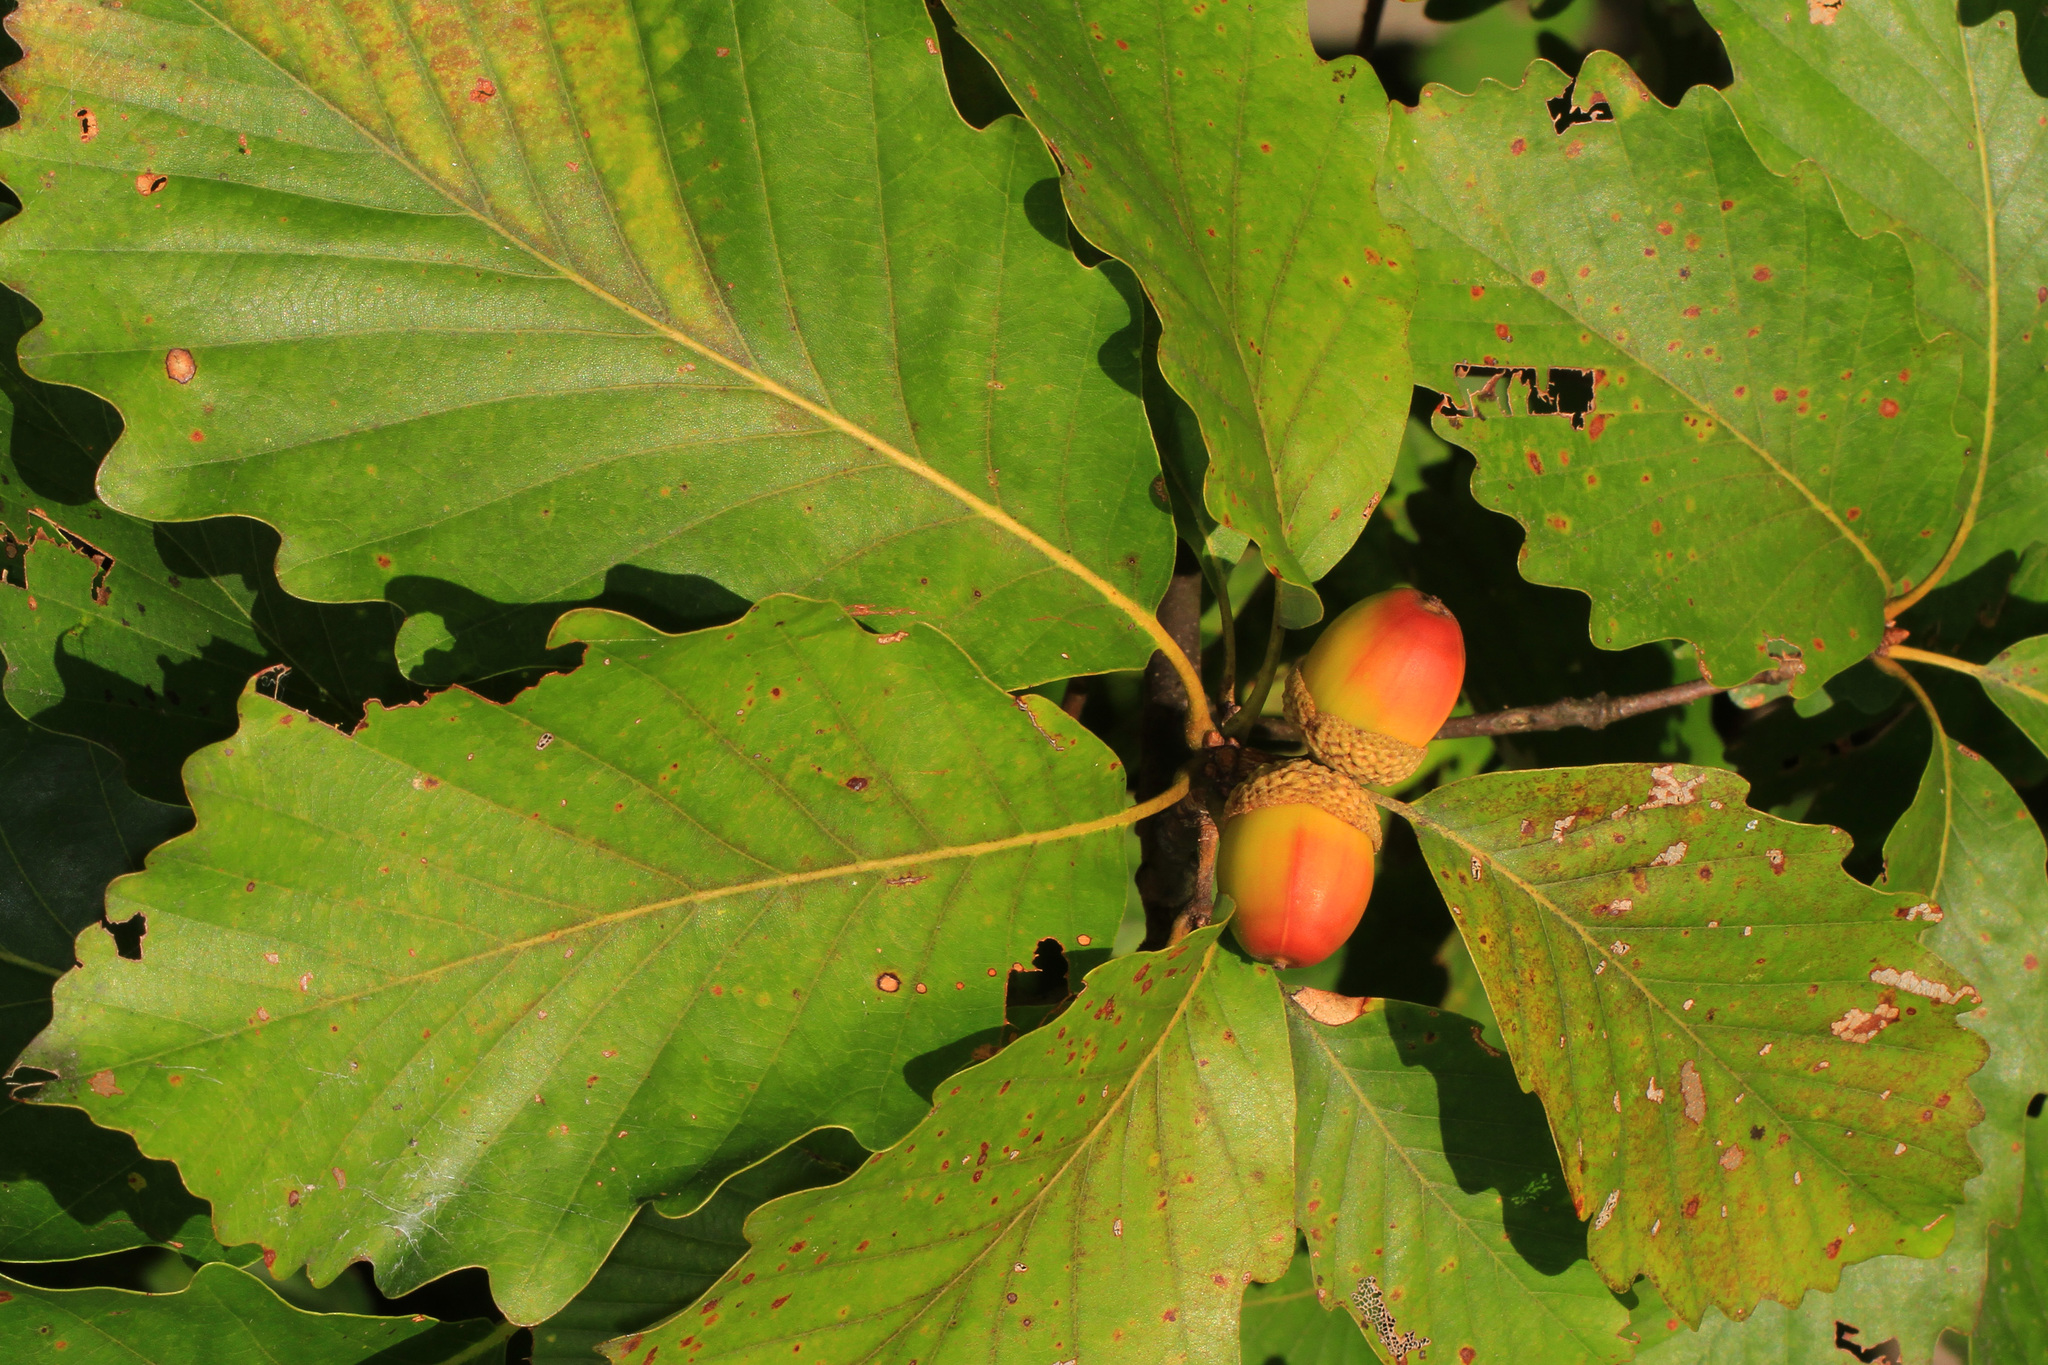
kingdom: Plantae
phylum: Tracheophyta
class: Magnoliopsida
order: Fagales
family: Fagaceae
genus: Quercus
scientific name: Quercus montana
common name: Chestnut oak
